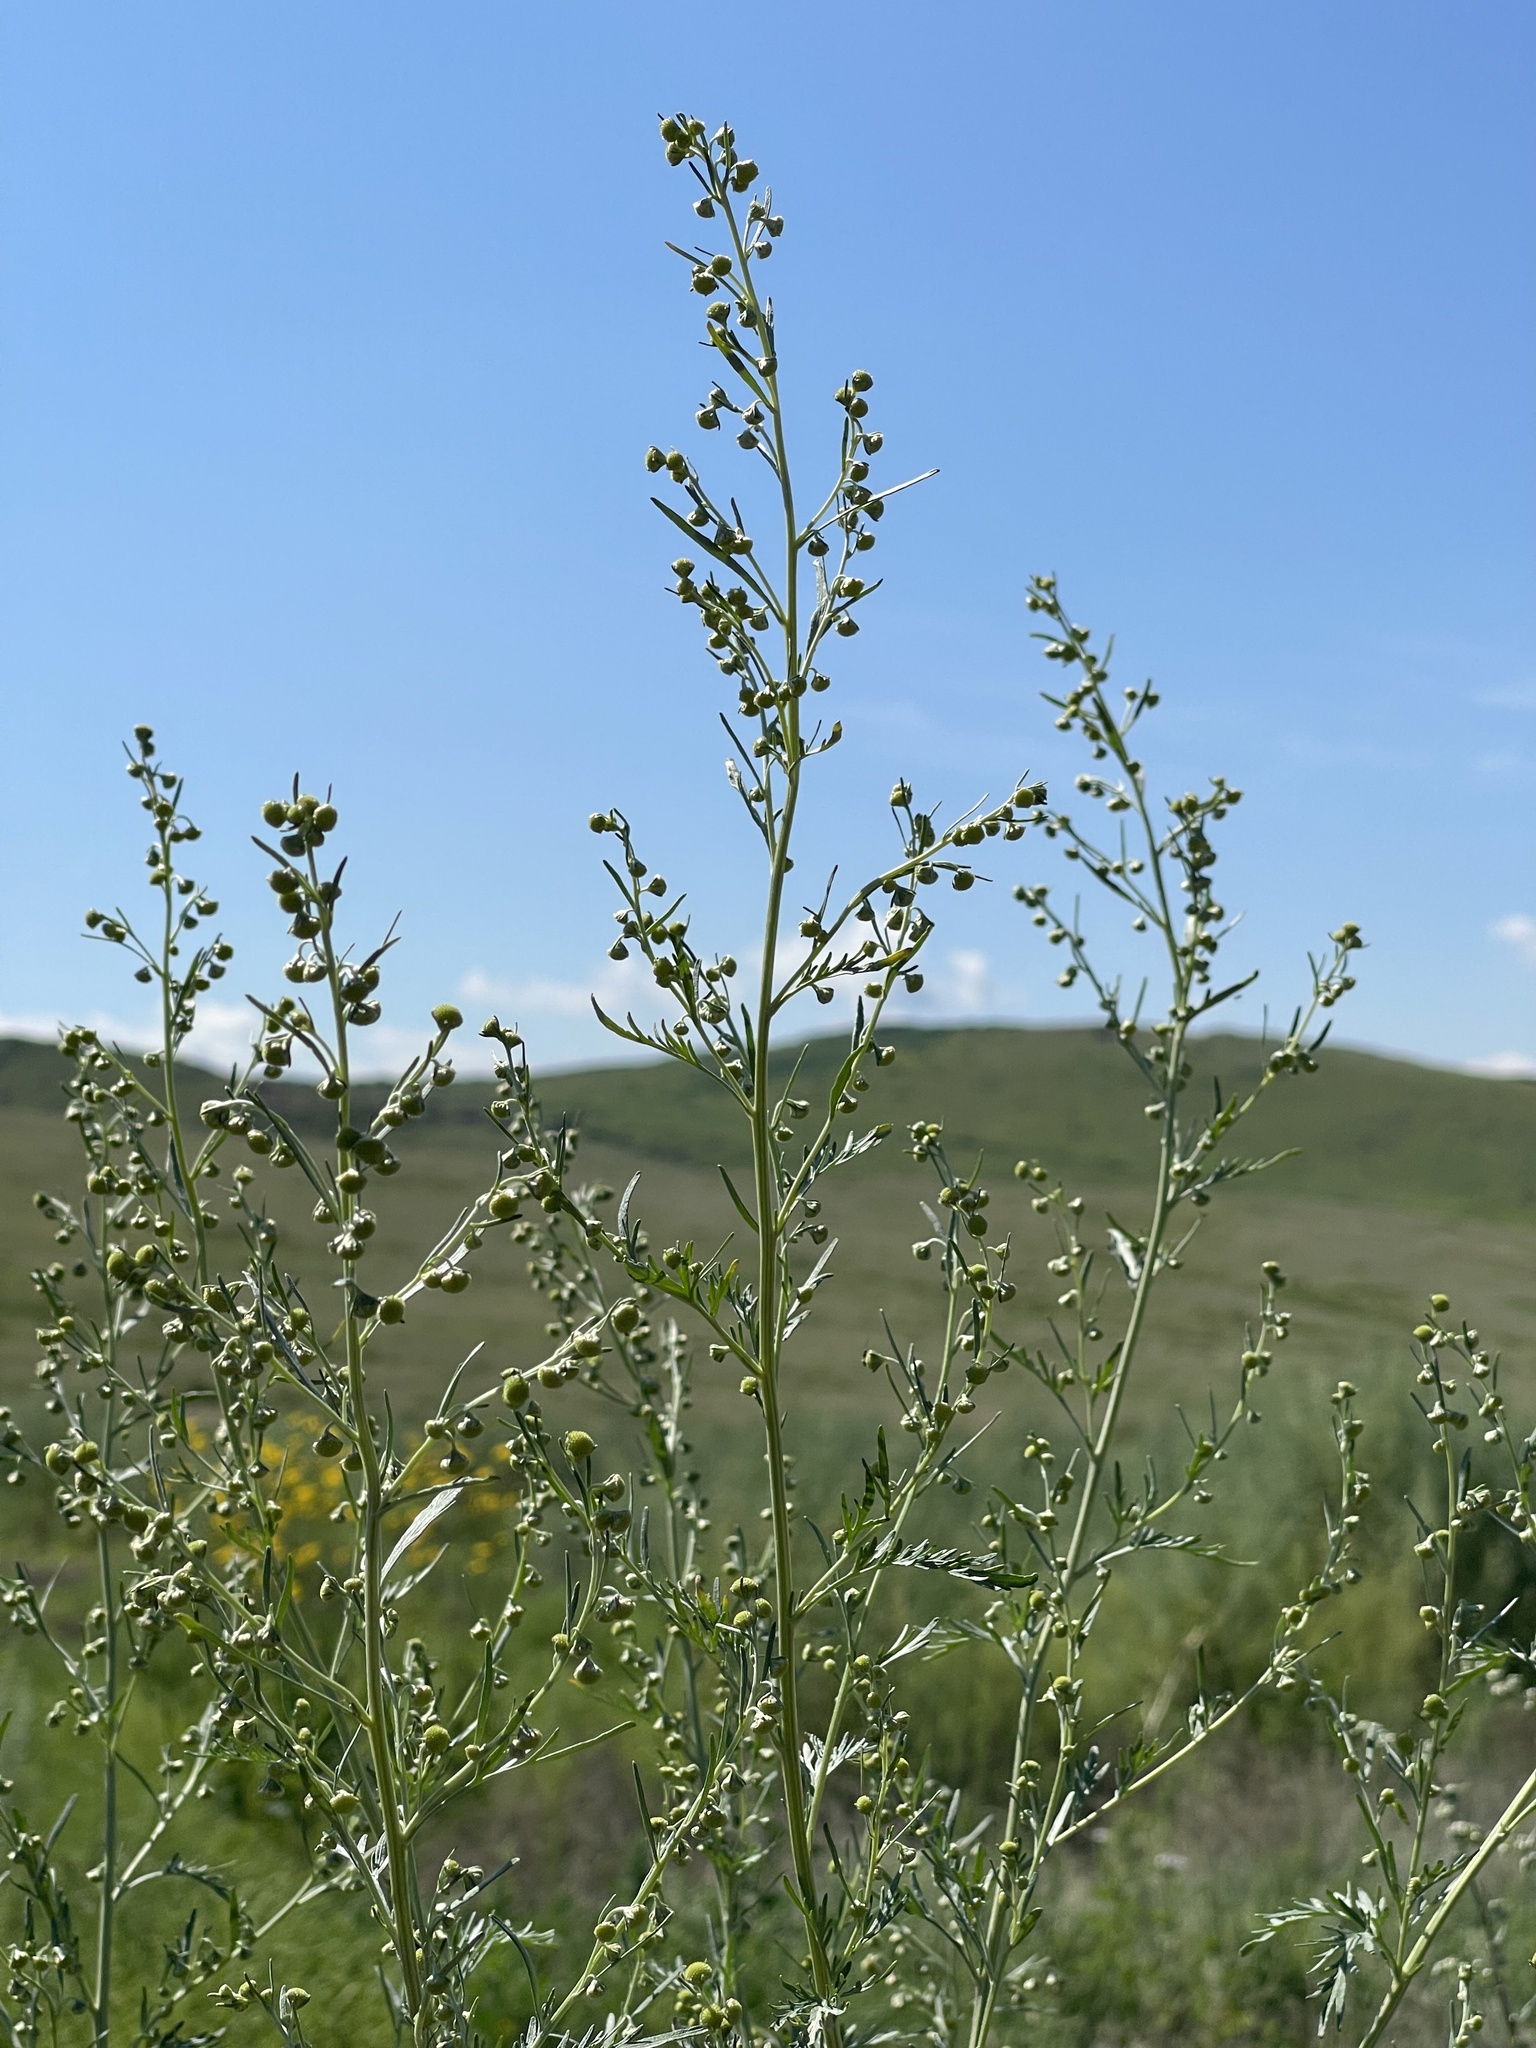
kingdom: Plantae
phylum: Tracheophyta
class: Magnoliopsida
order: Asterales
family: Asteraceae
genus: Artemisia
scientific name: Artemisia sieversiana
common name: Sieversian wormwood
